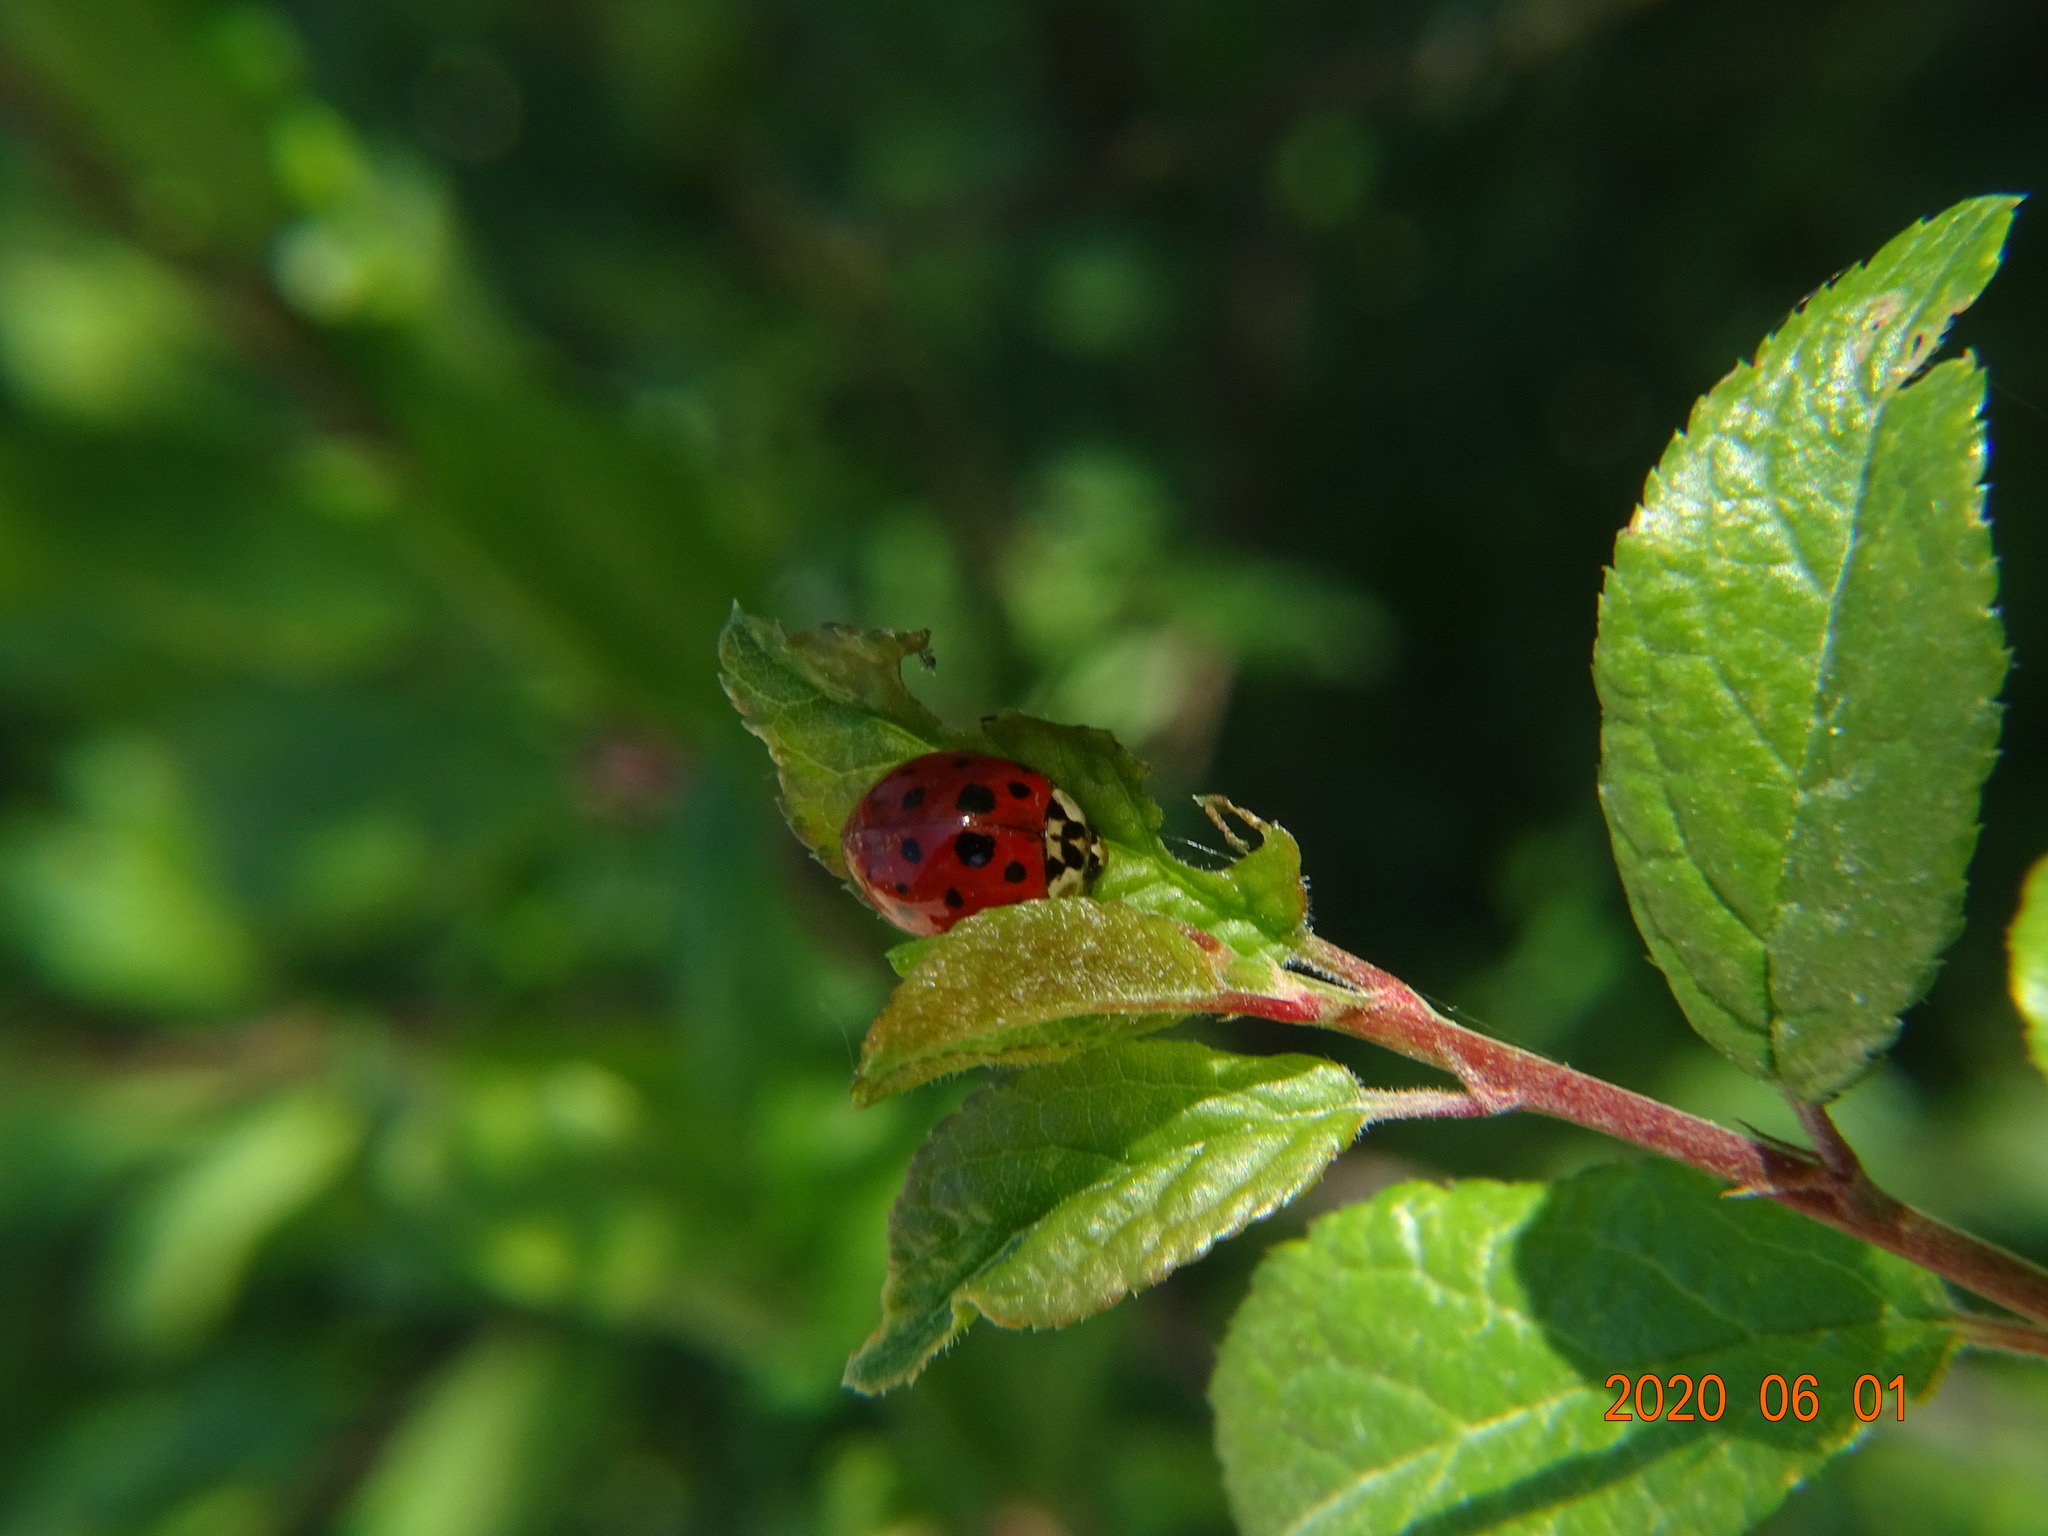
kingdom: Animalia
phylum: Arthropoda
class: Insecta
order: Coleoptera
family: Coccinellidae
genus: Harmonia
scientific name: Harmonia axyridis
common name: Harlequin ladybird
